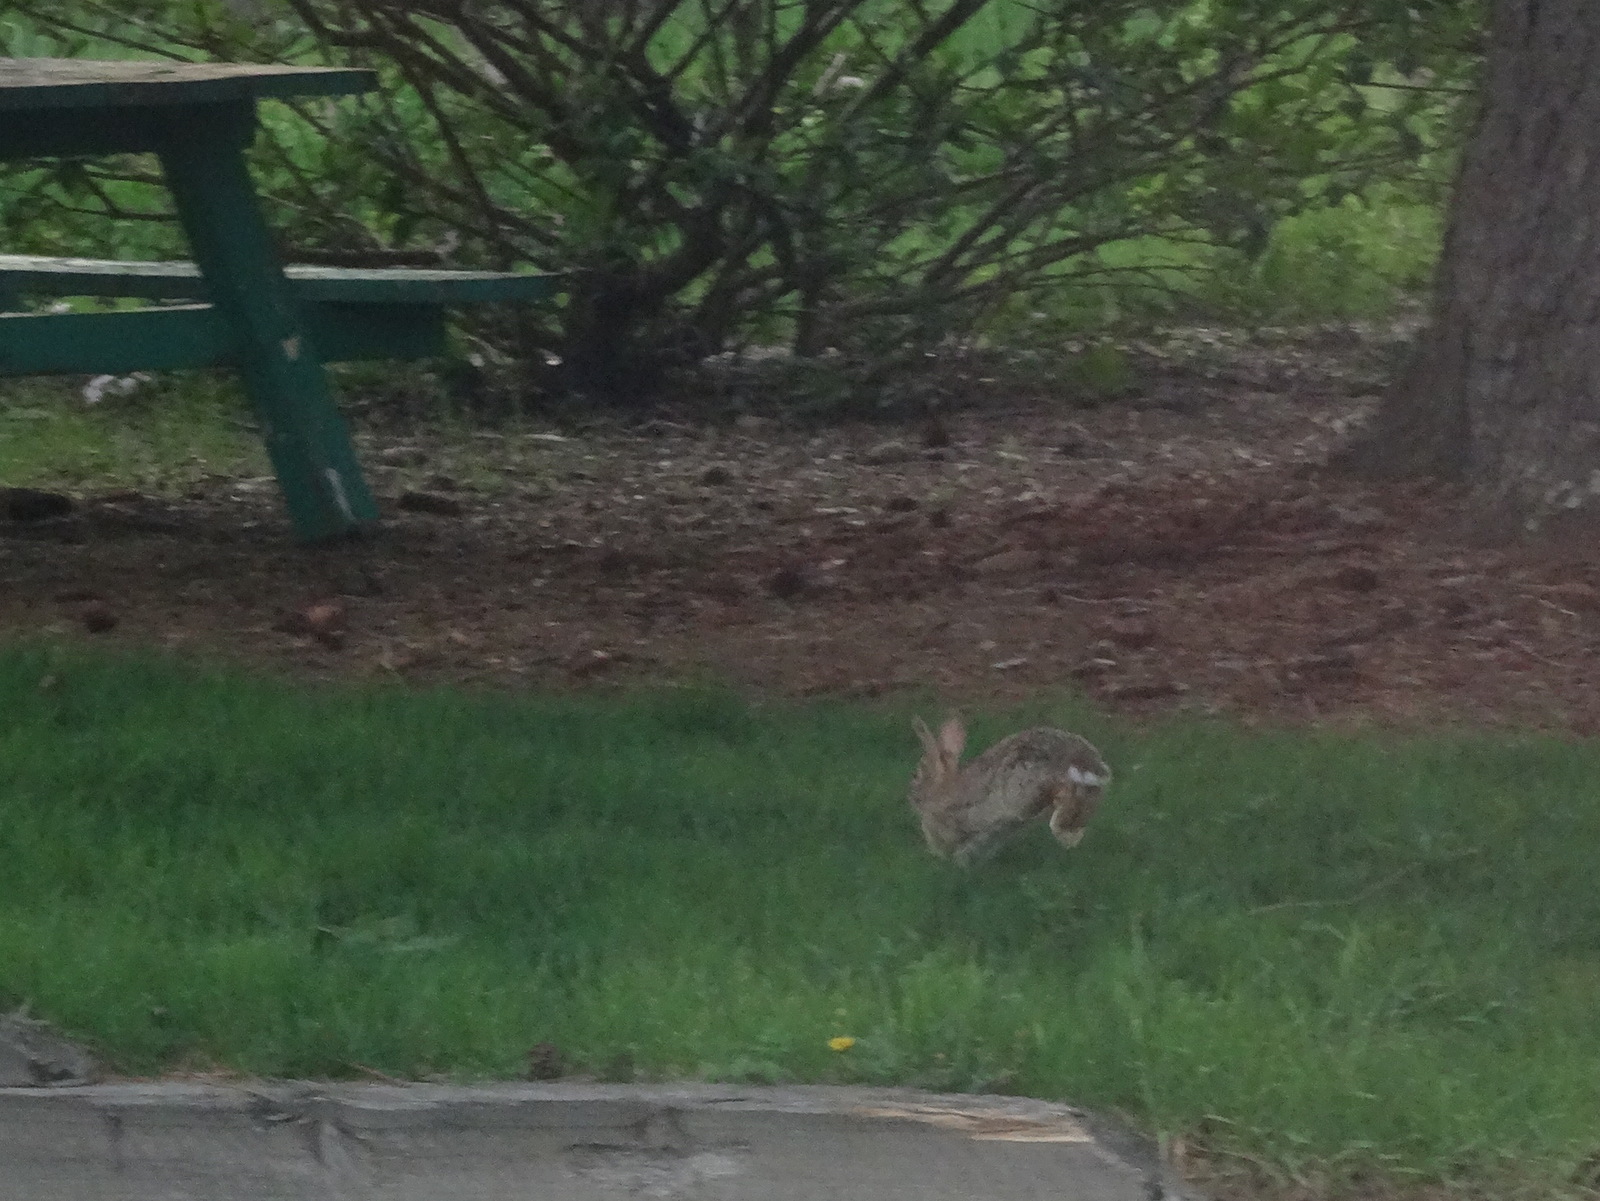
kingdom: Animalia
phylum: Chordata
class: Mammalia
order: Lagomorpha
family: Leporidae
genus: Sylvilagus
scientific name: Sylvilagus floridanus
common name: Eastern cottontail
